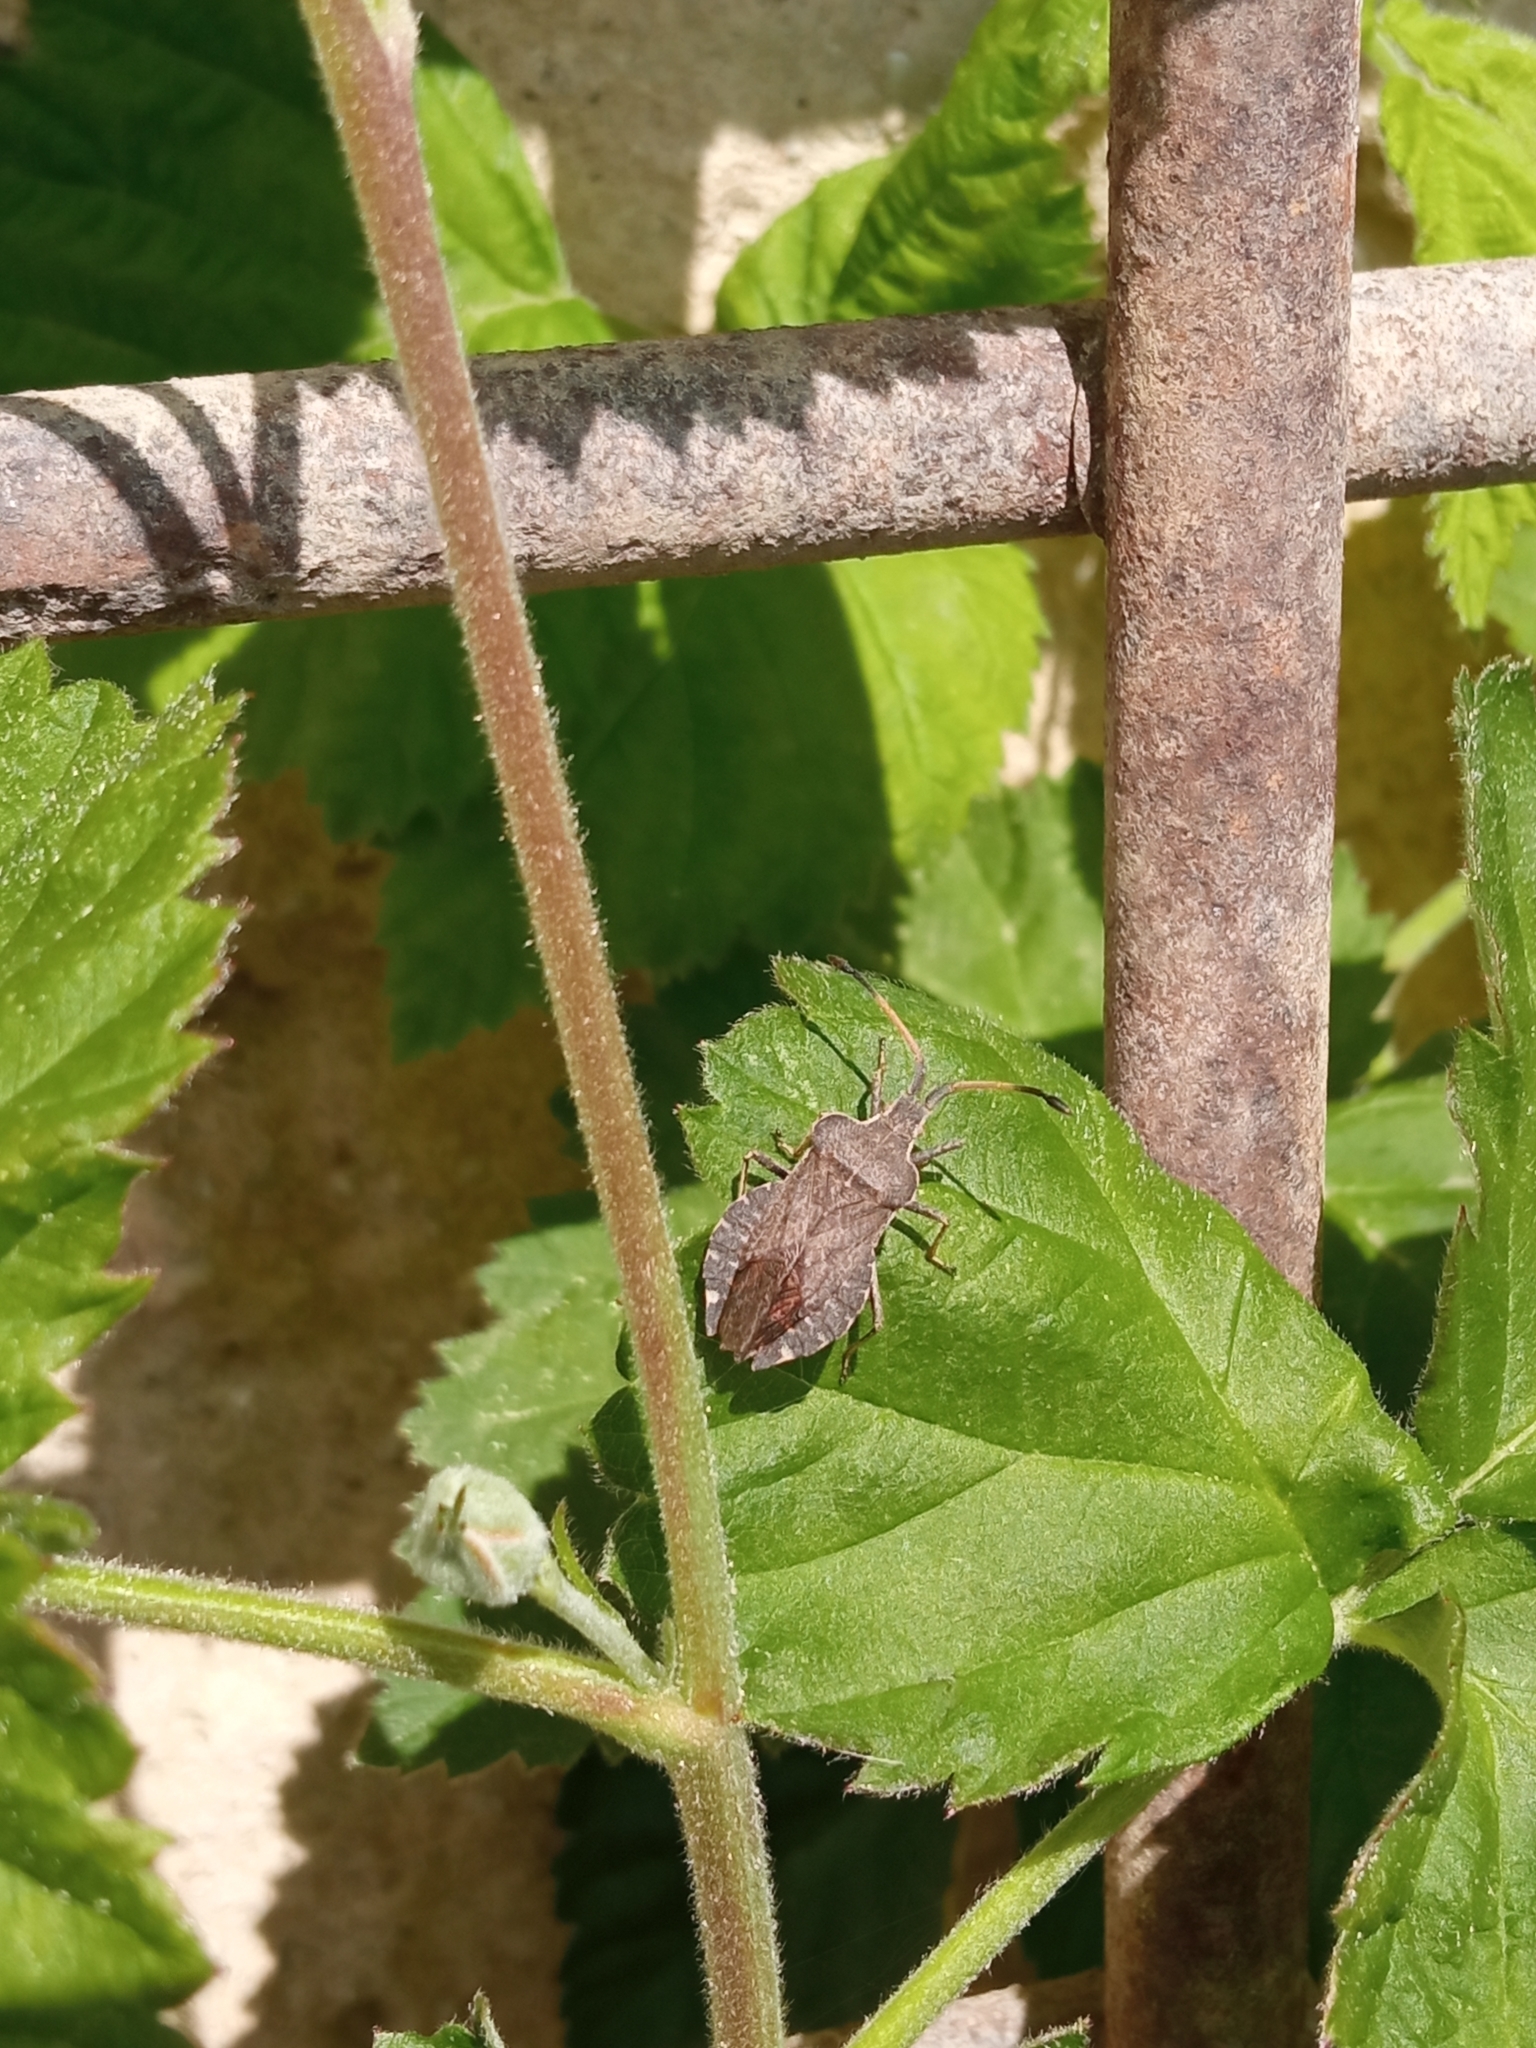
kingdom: Animalia
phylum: Arthropoda
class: Insecta
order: Hemiptera
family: Coreidae
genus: Enoplops
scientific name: Enoplops scapha
